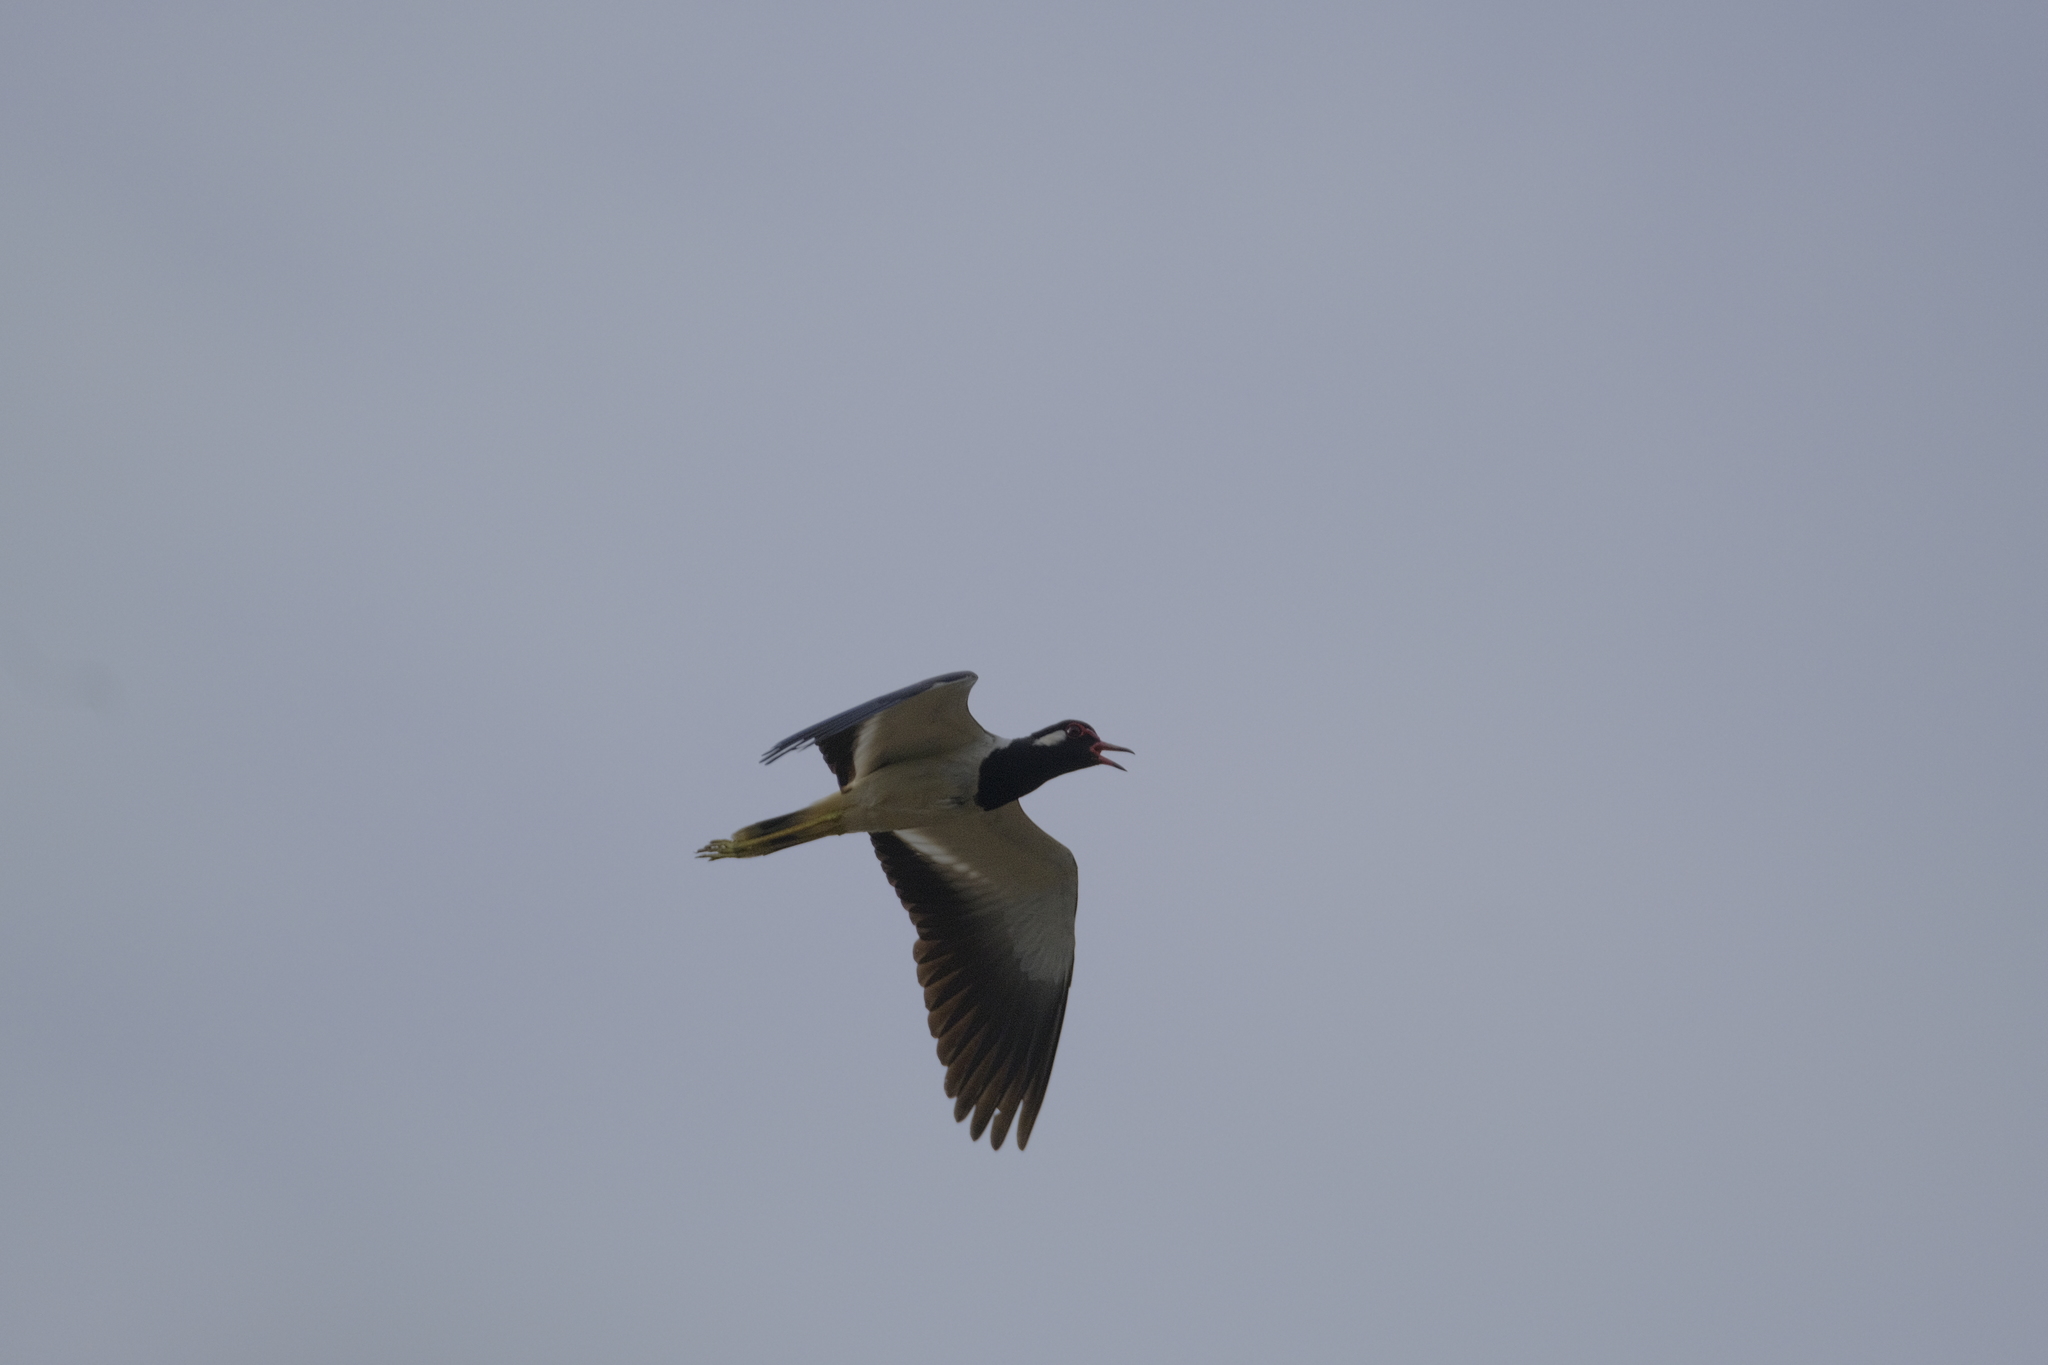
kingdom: Animalia
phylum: Chordata
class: Aves
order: Charadriiformes
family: Charadriidae
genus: Vanellus
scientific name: Vanellus indicus
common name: Red-wattled lapwing
